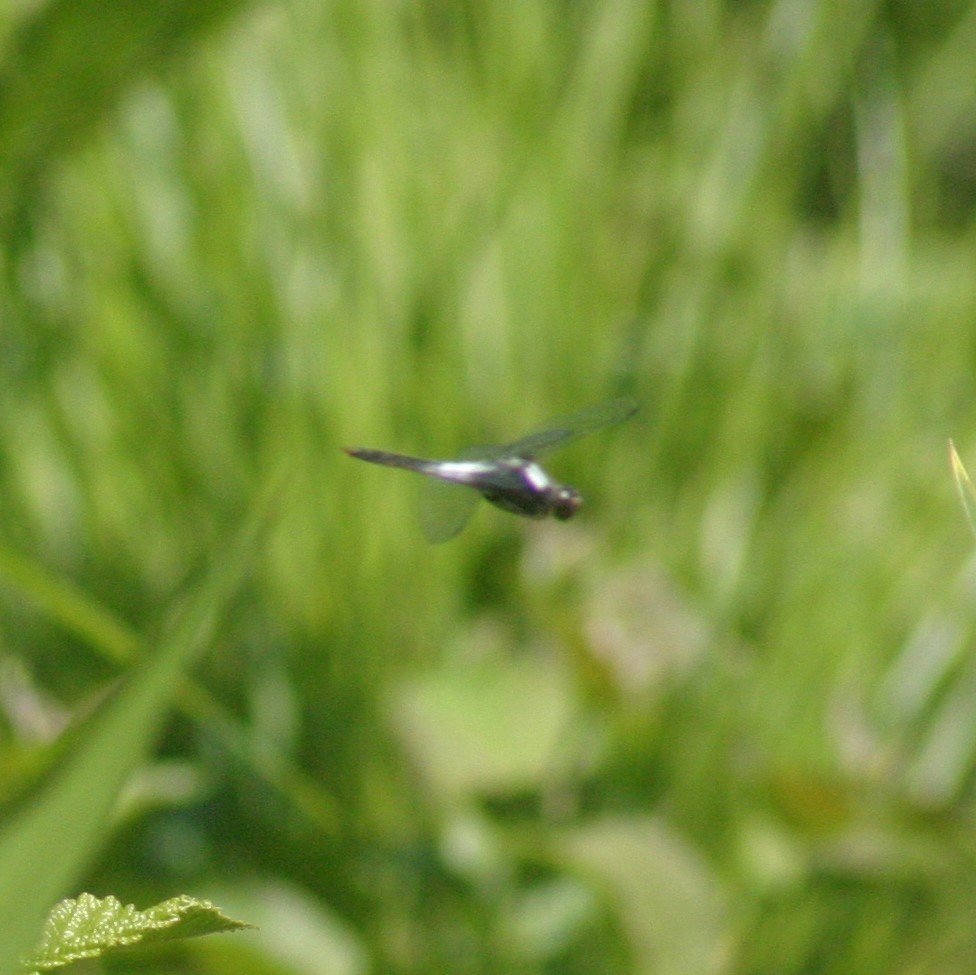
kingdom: Animalia
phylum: Arthropoda
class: Insecta
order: Odonata
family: Libellulidae
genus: Ladona
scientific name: Ladona julia
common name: Chalk-fronted corporal
